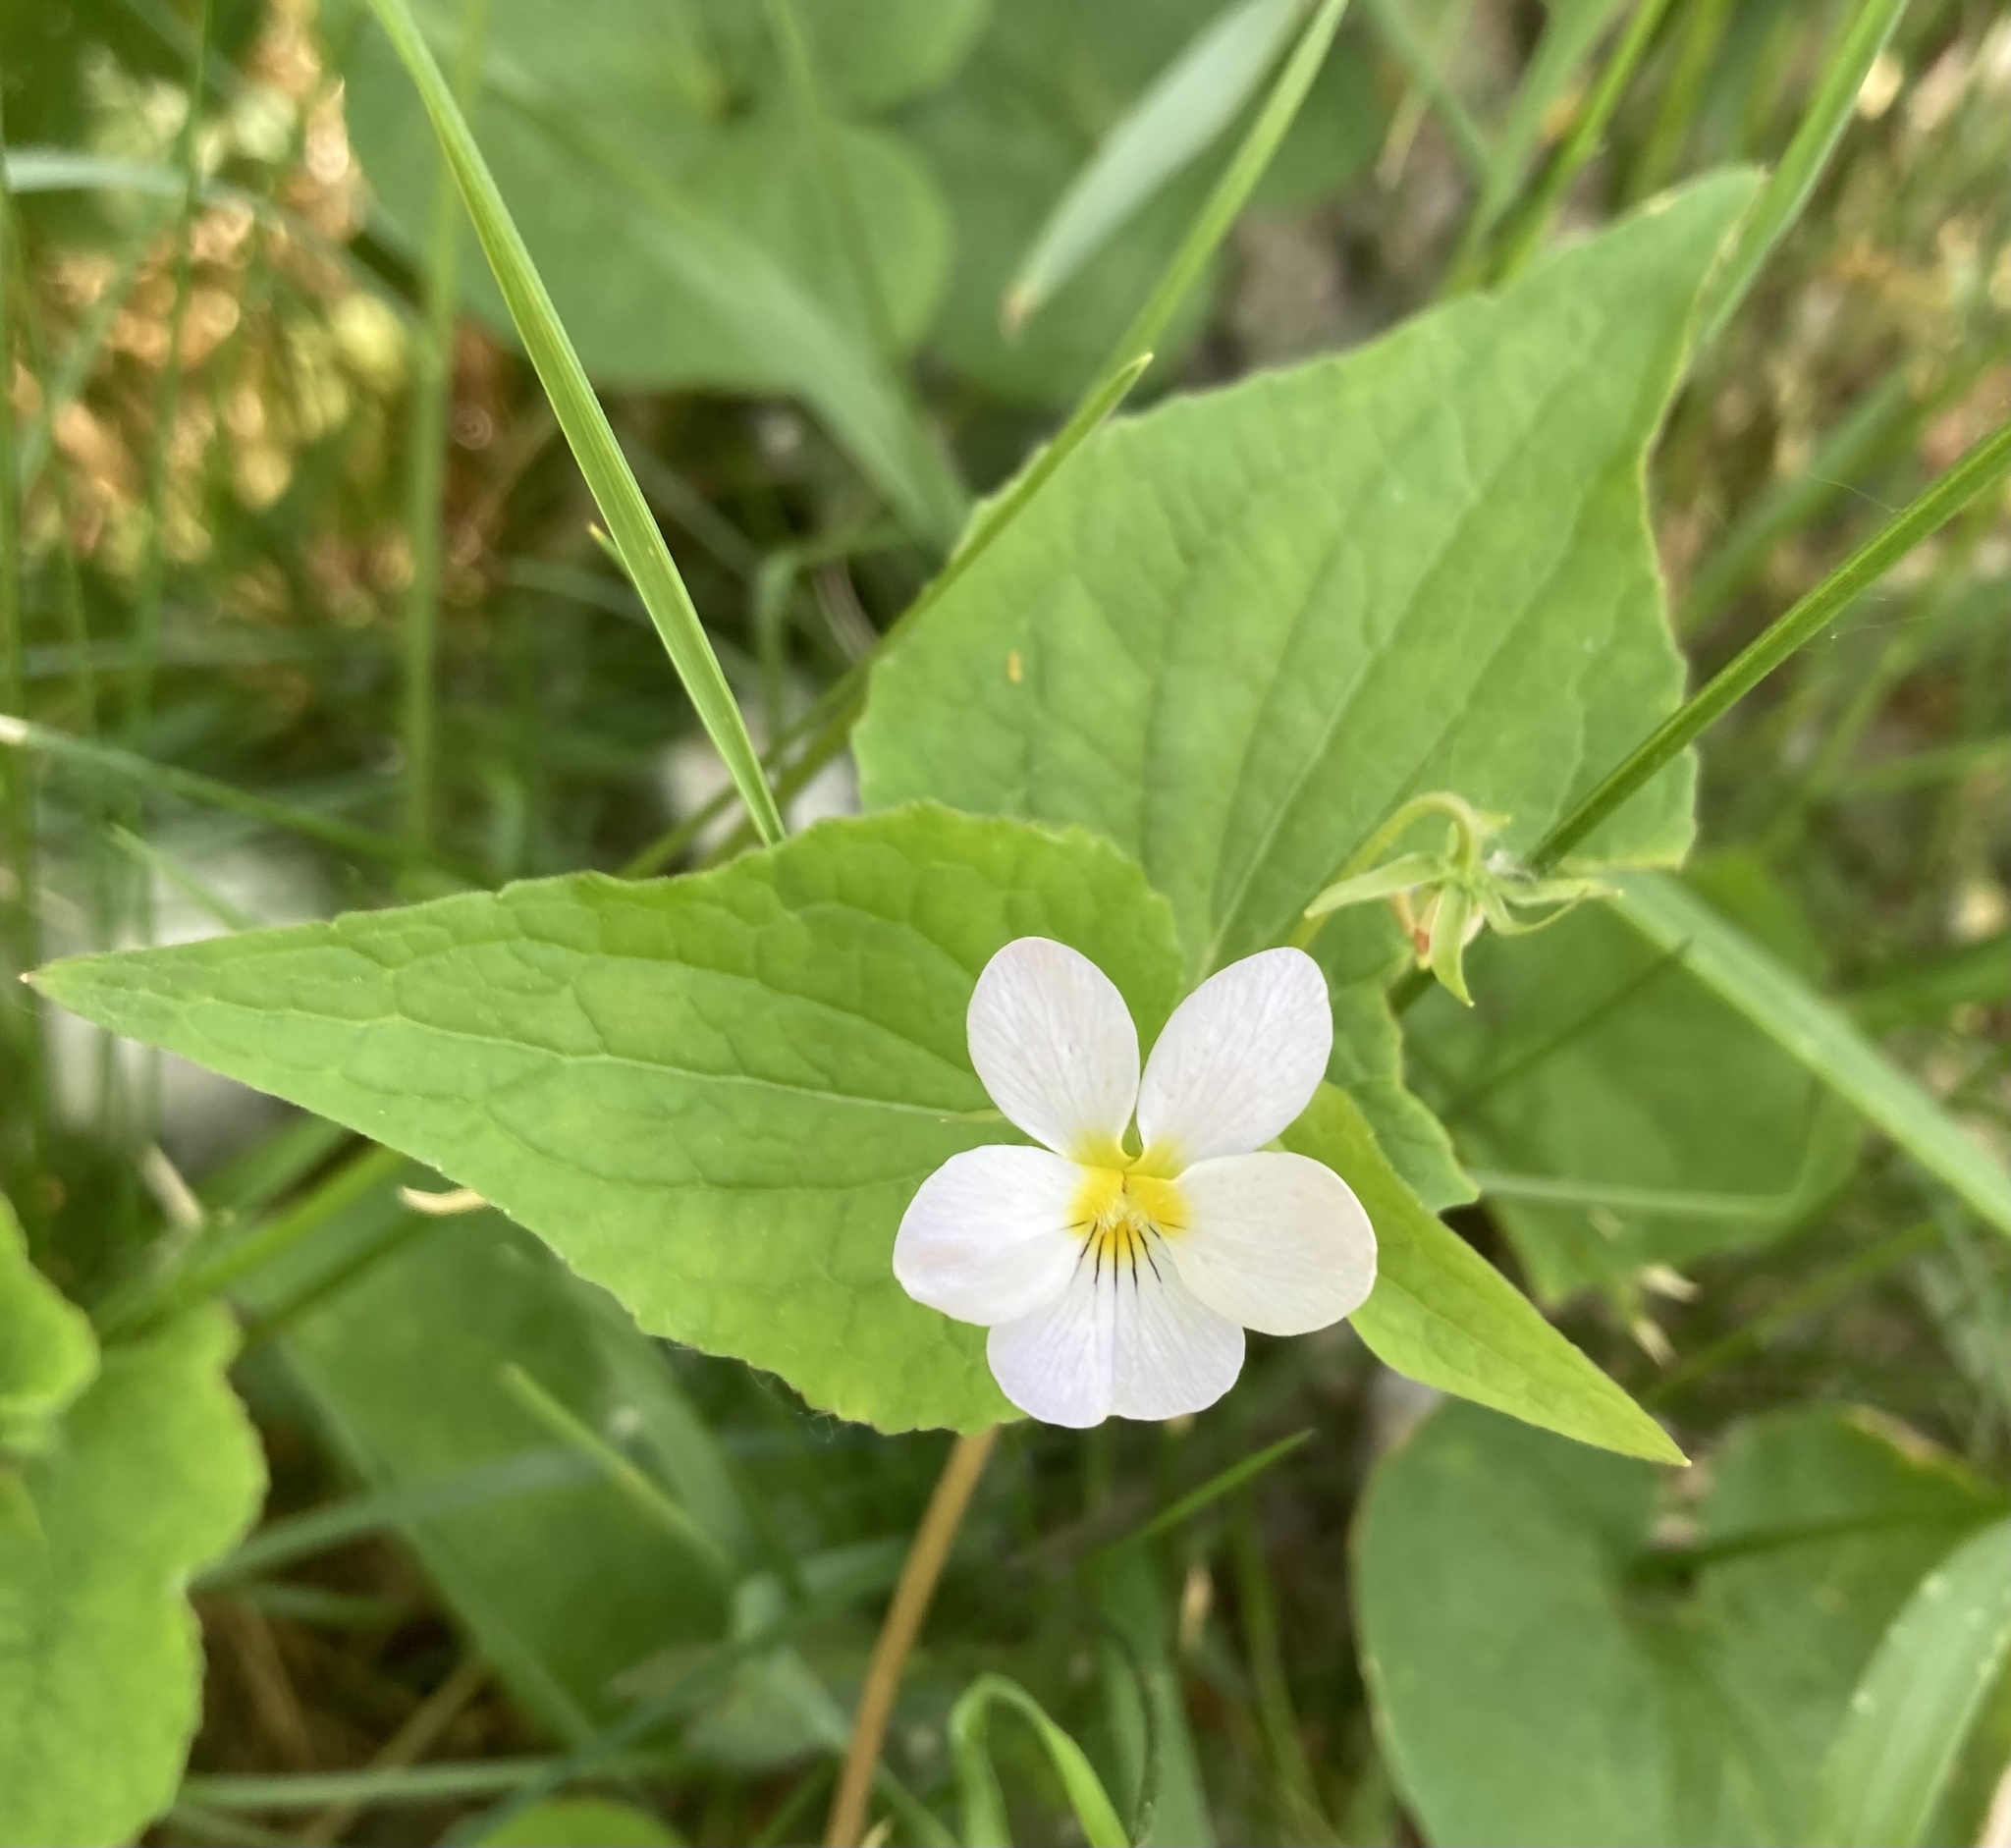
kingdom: Plantae
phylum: Tracheophyta
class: Magnoliopsida
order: Malpighiales
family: Violaceae
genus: Viola
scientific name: Viola canadensis
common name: Canada violet
